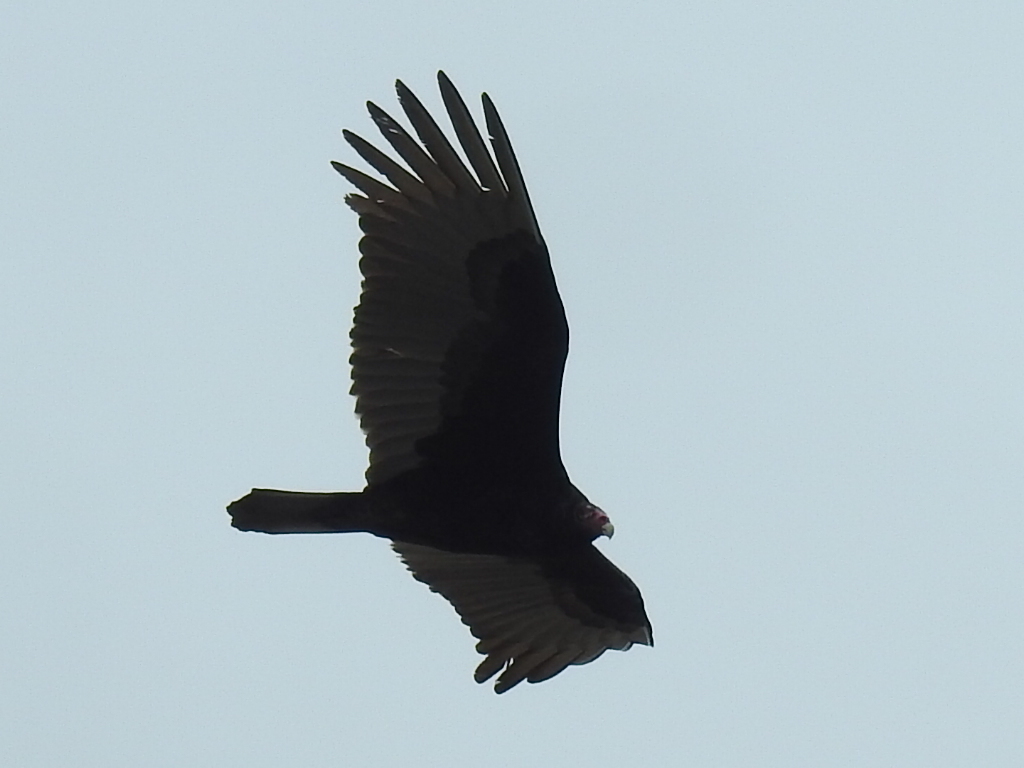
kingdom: Animalia
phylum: Chordata
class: Aves
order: Accipitriformes
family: Cathartidae
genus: Cathartes
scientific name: Cathartes aura
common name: Turkey vulture
